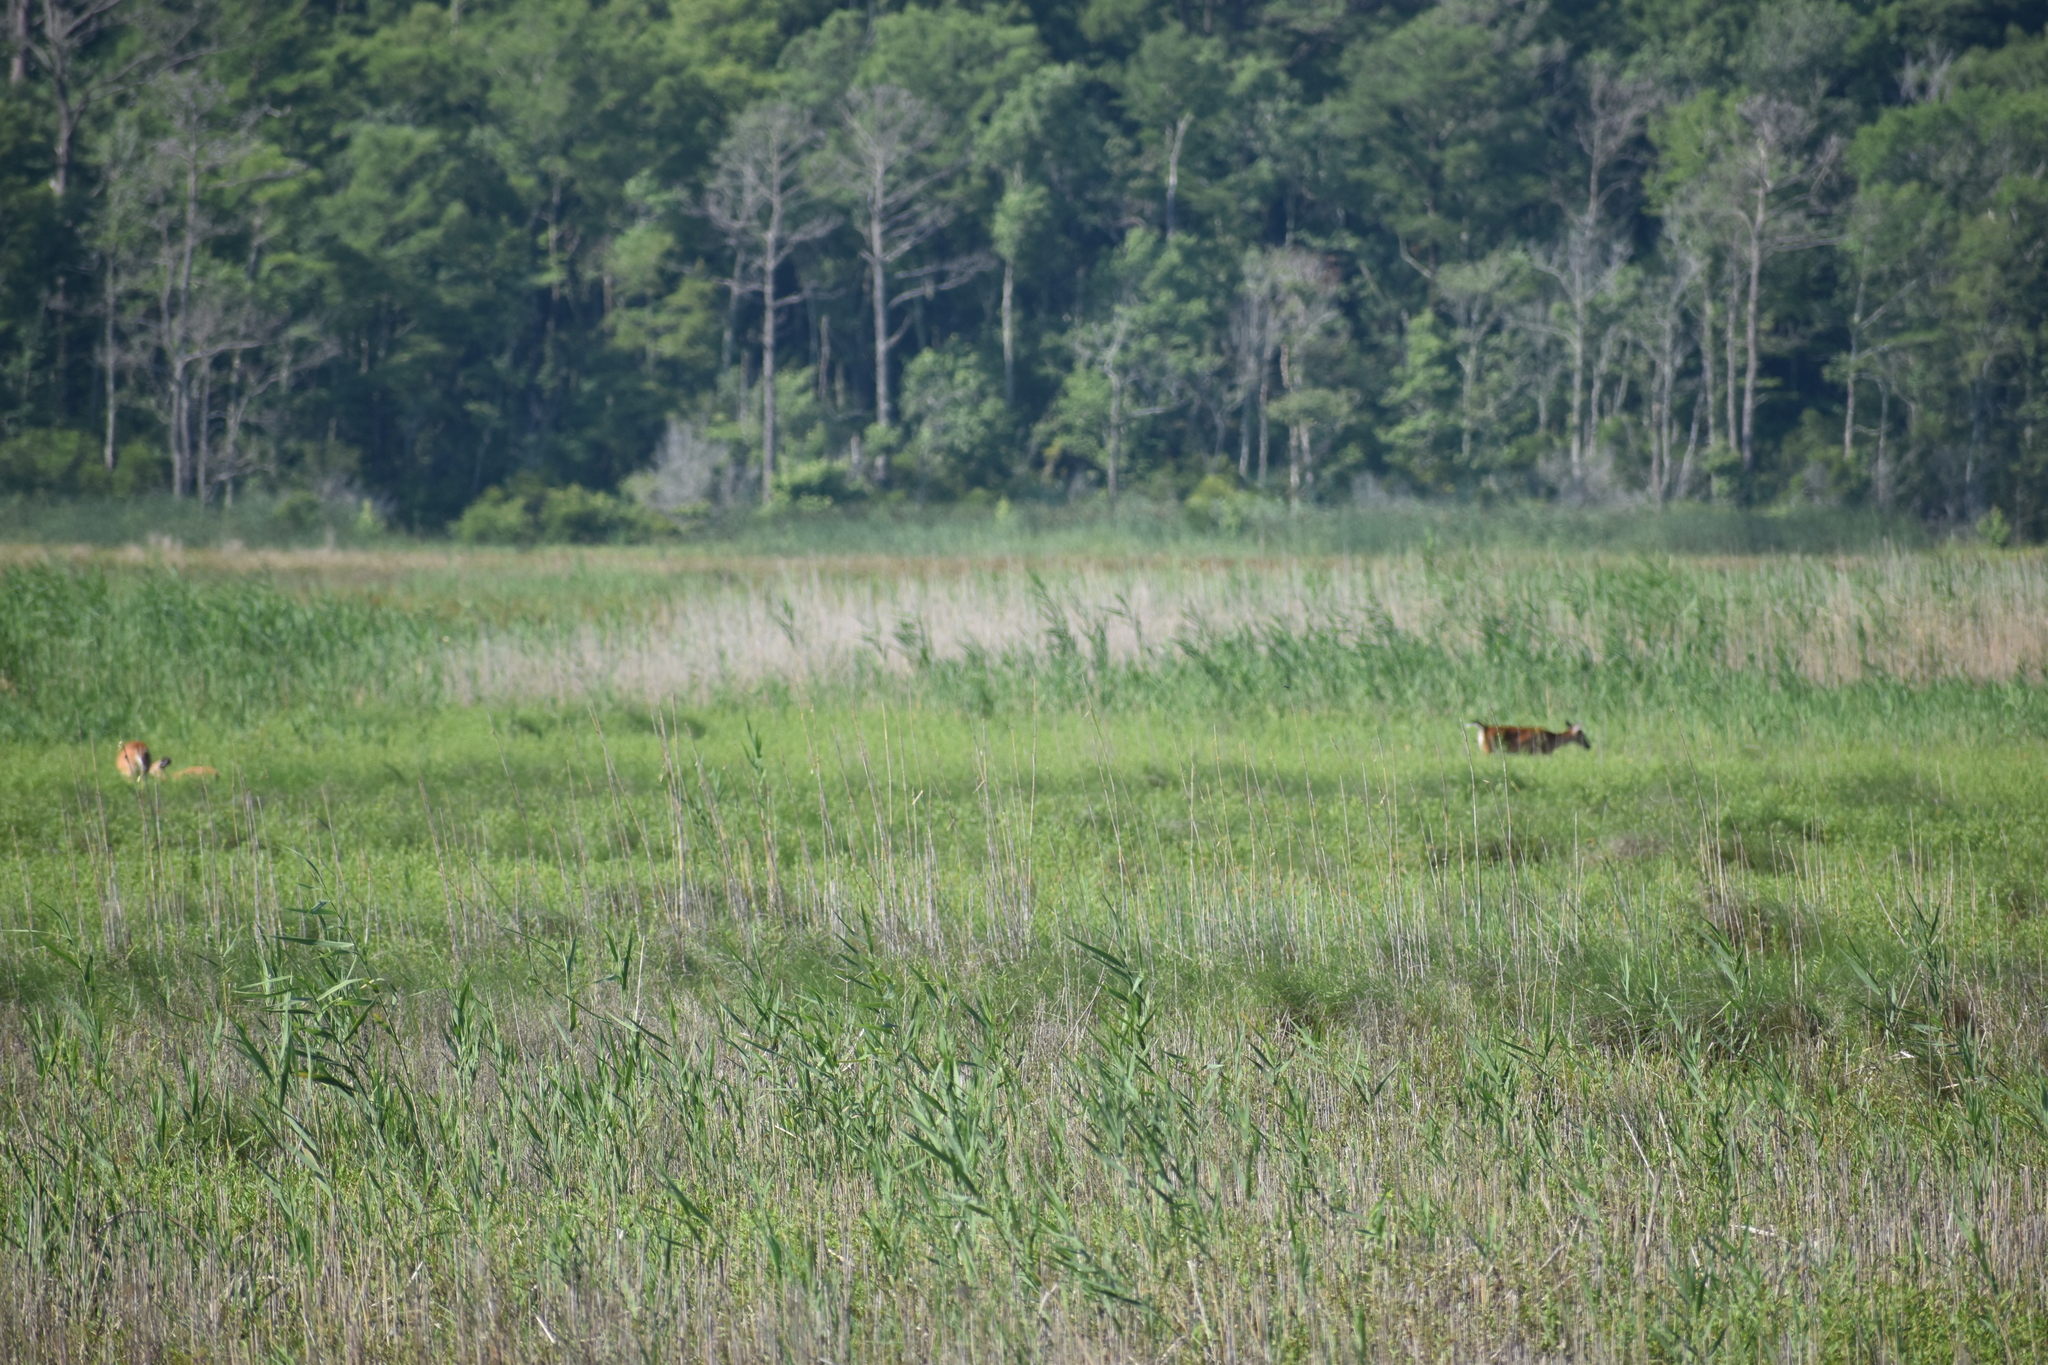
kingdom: Animalia
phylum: Chordata
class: Mammalia
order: Artiodactyla
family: Cervidae
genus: Odocoileus
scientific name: Odocoileus virginianus
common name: White-tailed deer
